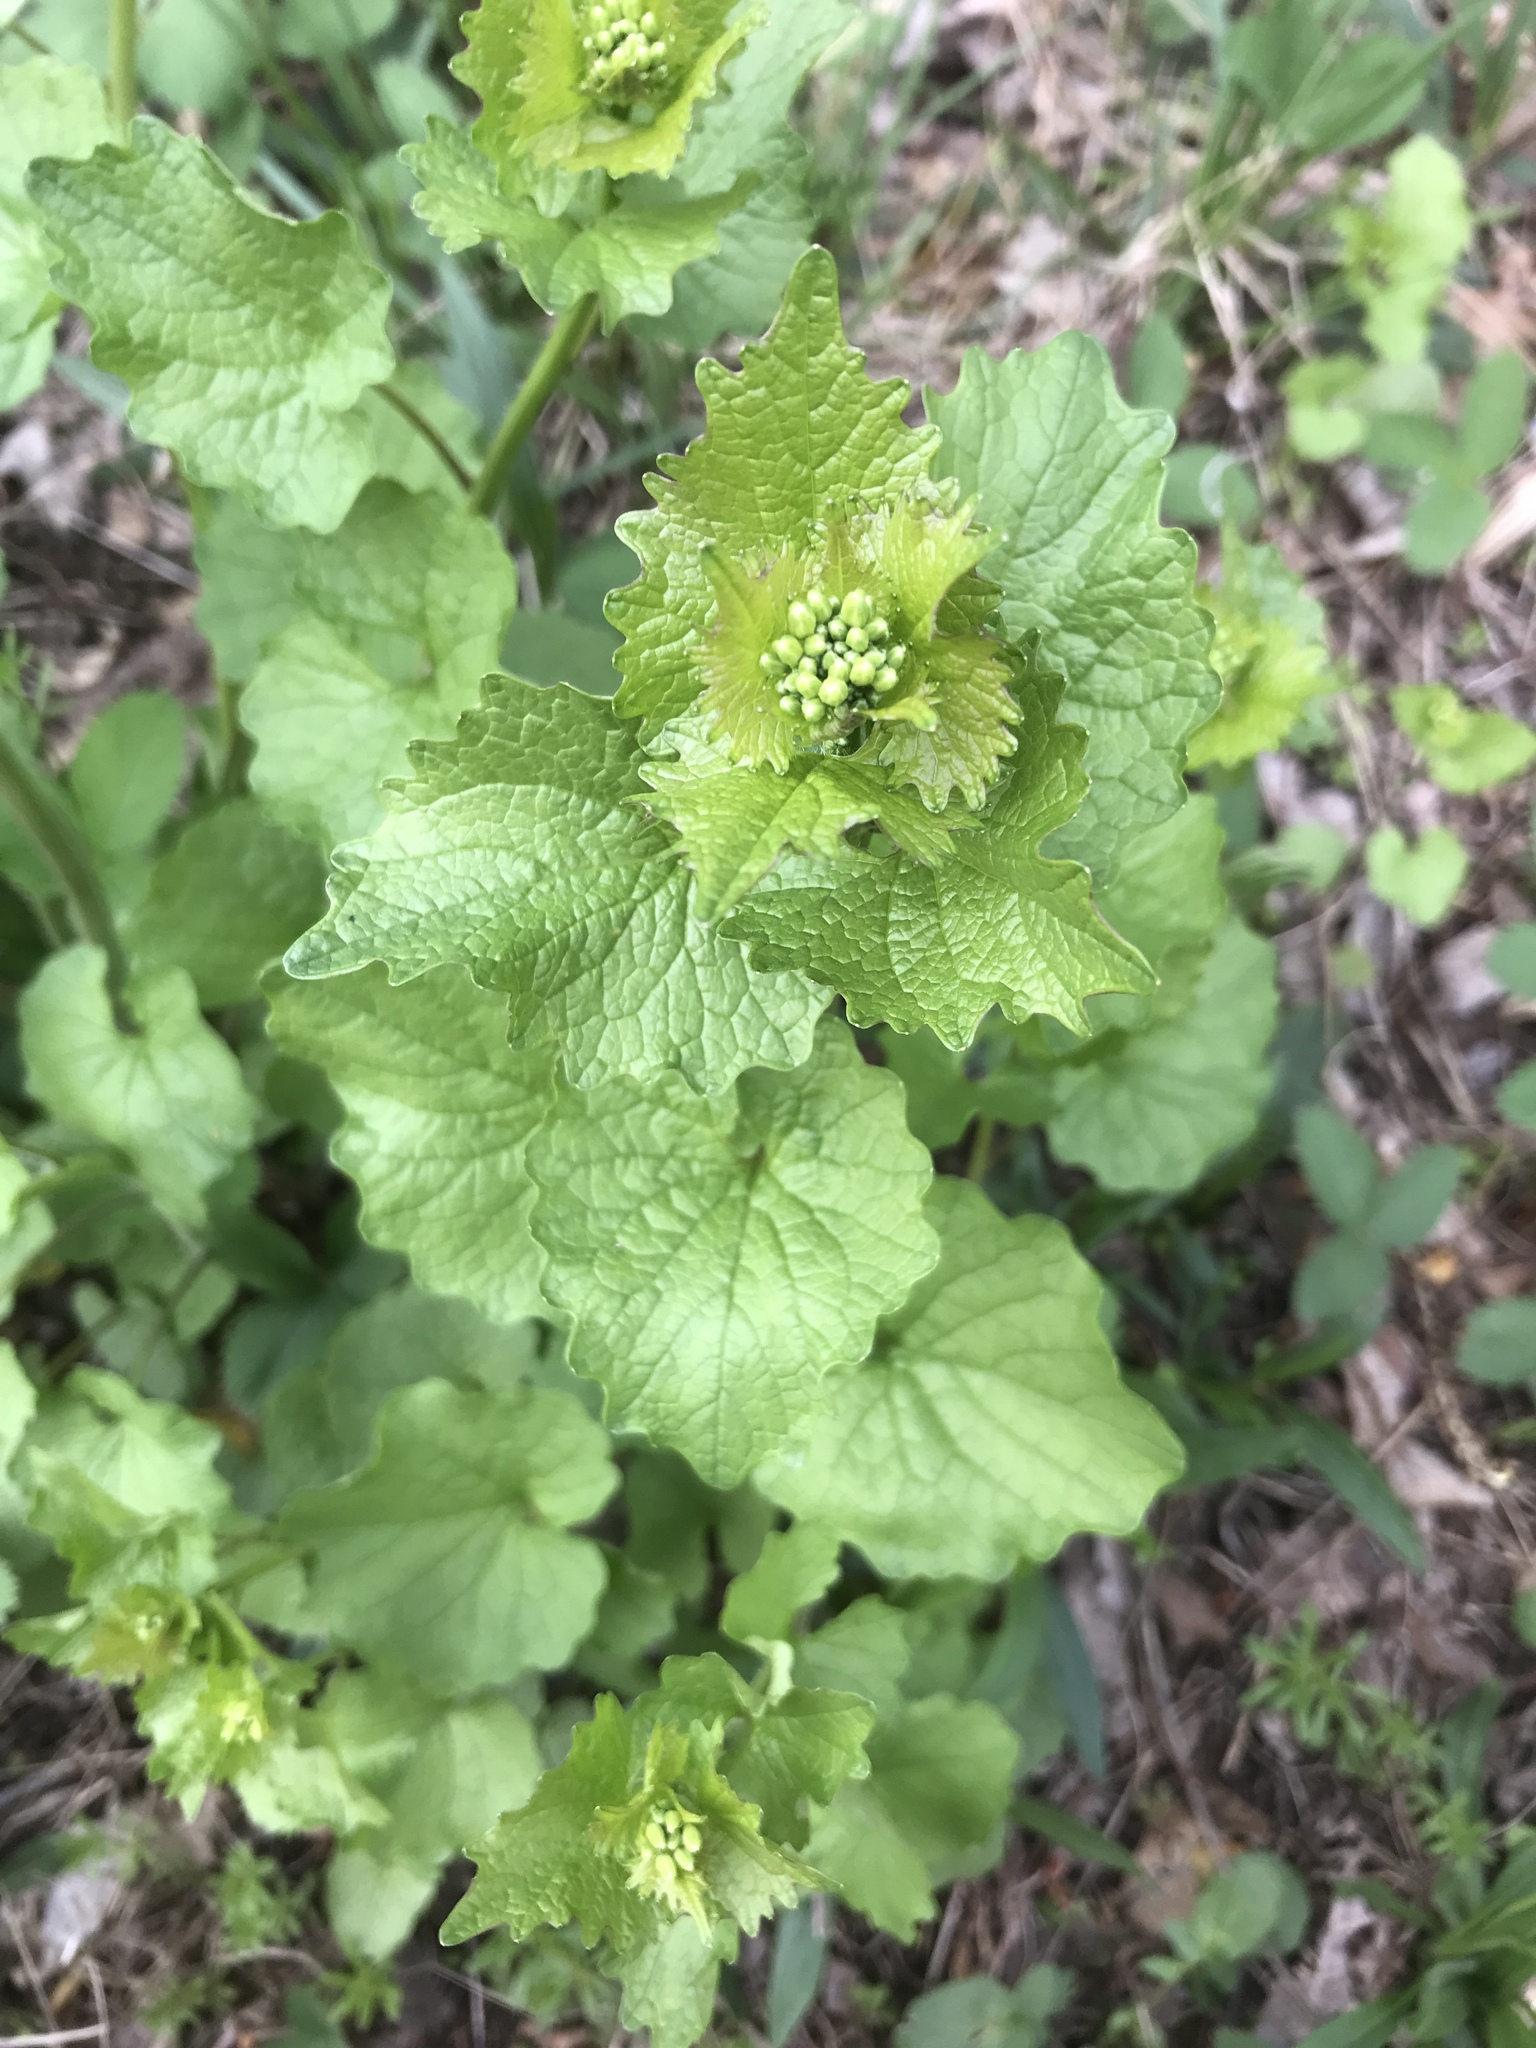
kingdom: Plantae
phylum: Tracheophyta
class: Magnoliopsida
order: Brassicales
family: Brassicaceae
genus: Alliaria
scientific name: Alliaria petiolata
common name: Garlic mustard
